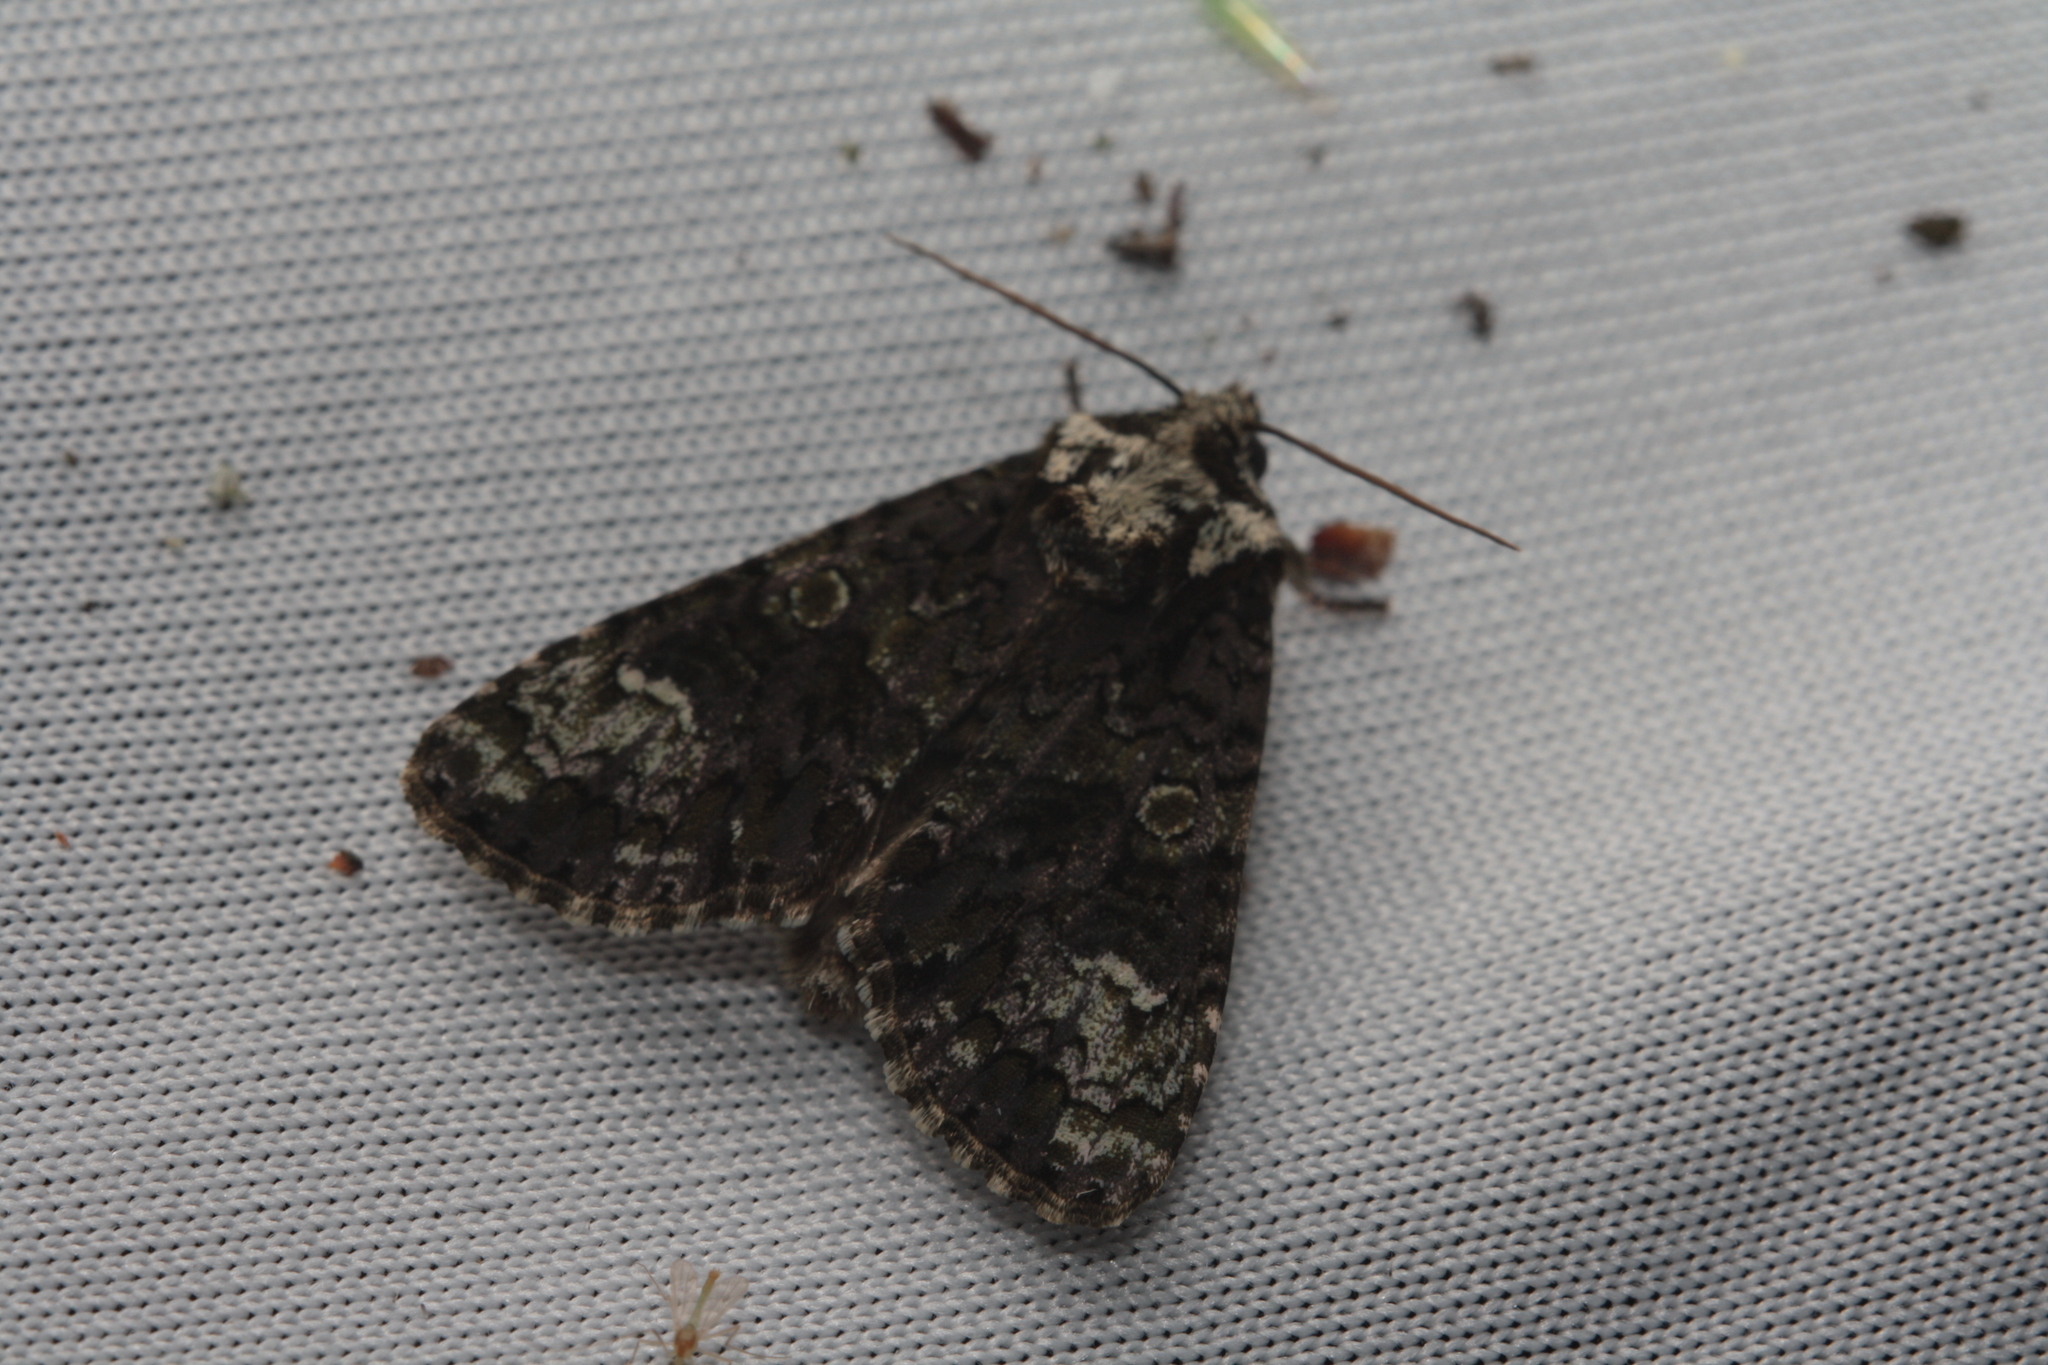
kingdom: Animalia
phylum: Arthropoda
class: Insecta
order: Lepidoptera
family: Noctuidae
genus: Craniophora
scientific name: Craniophora ligustri
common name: Coronet
